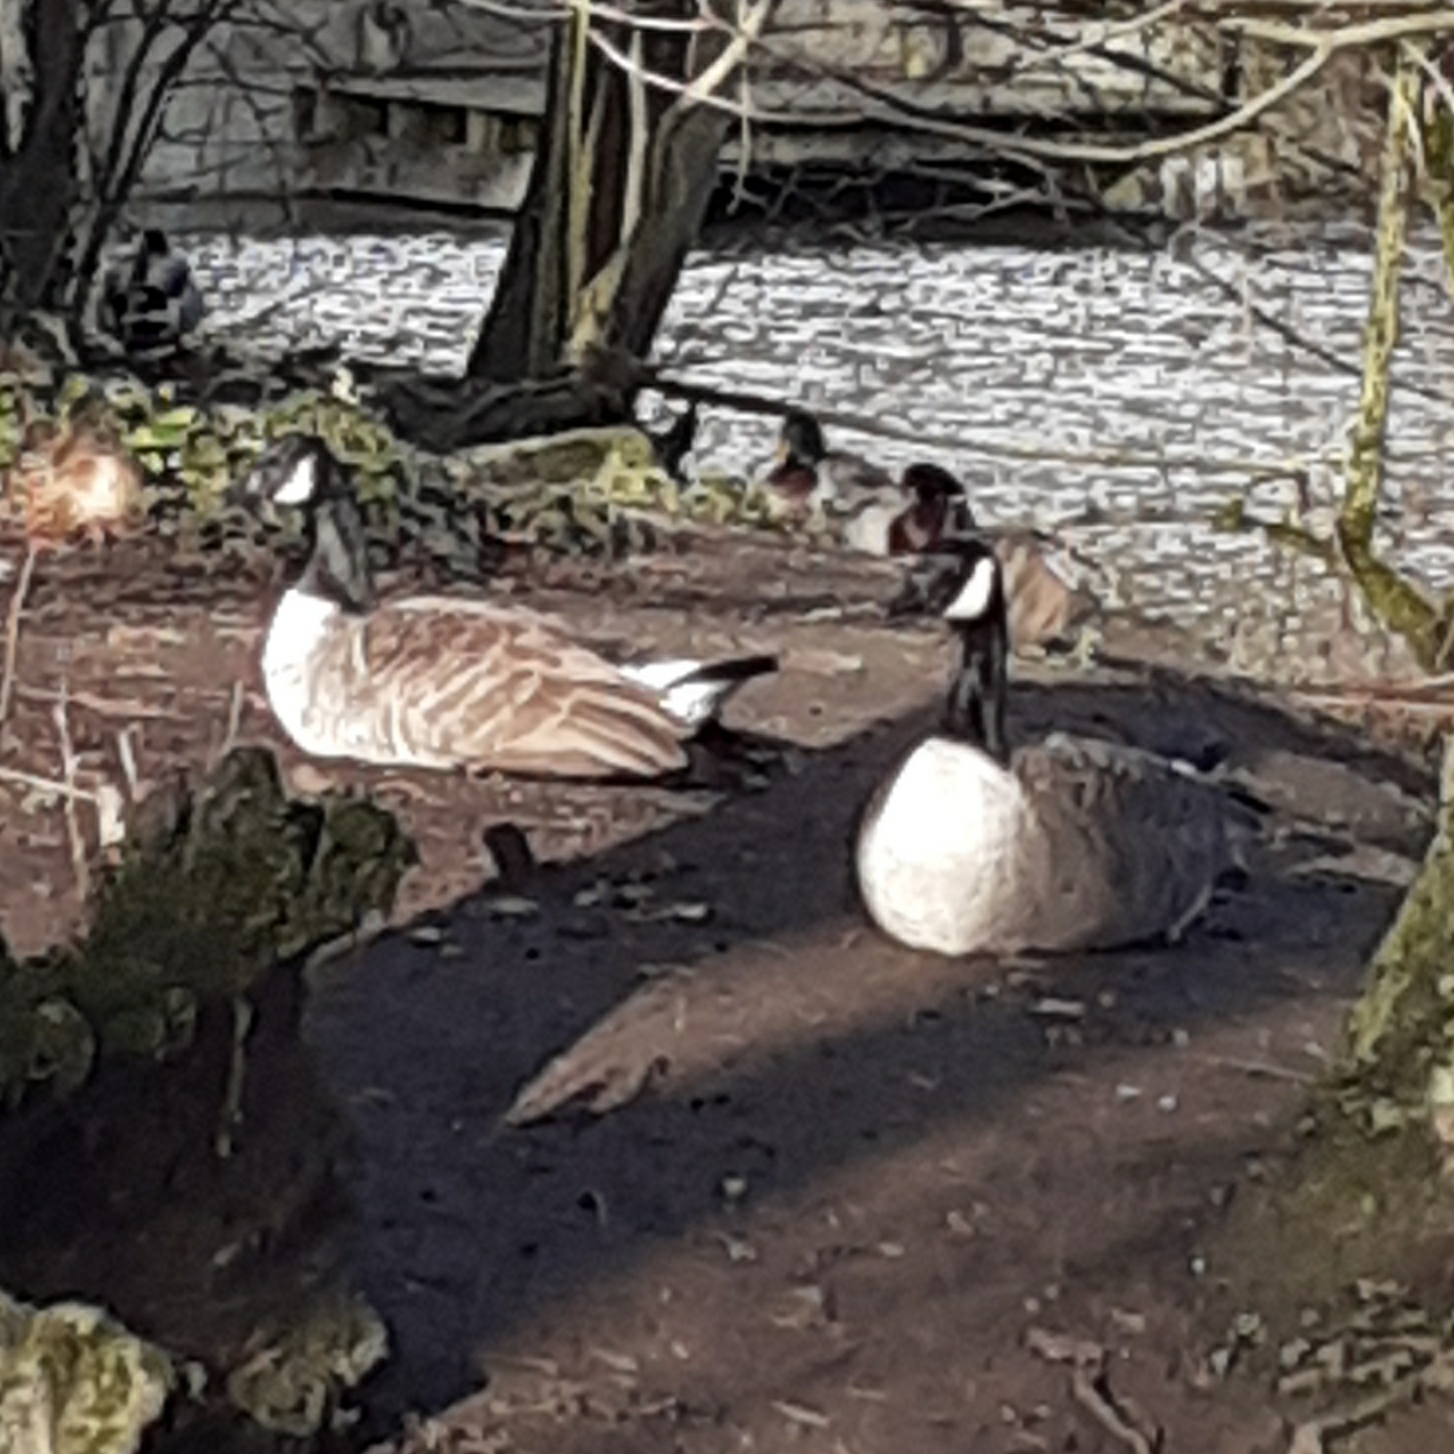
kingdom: Animalia
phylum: Chordata
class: Aves
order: Anseriformes
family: Anatidae
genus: Branta
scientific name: Branta canadensis
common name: Canada goose
